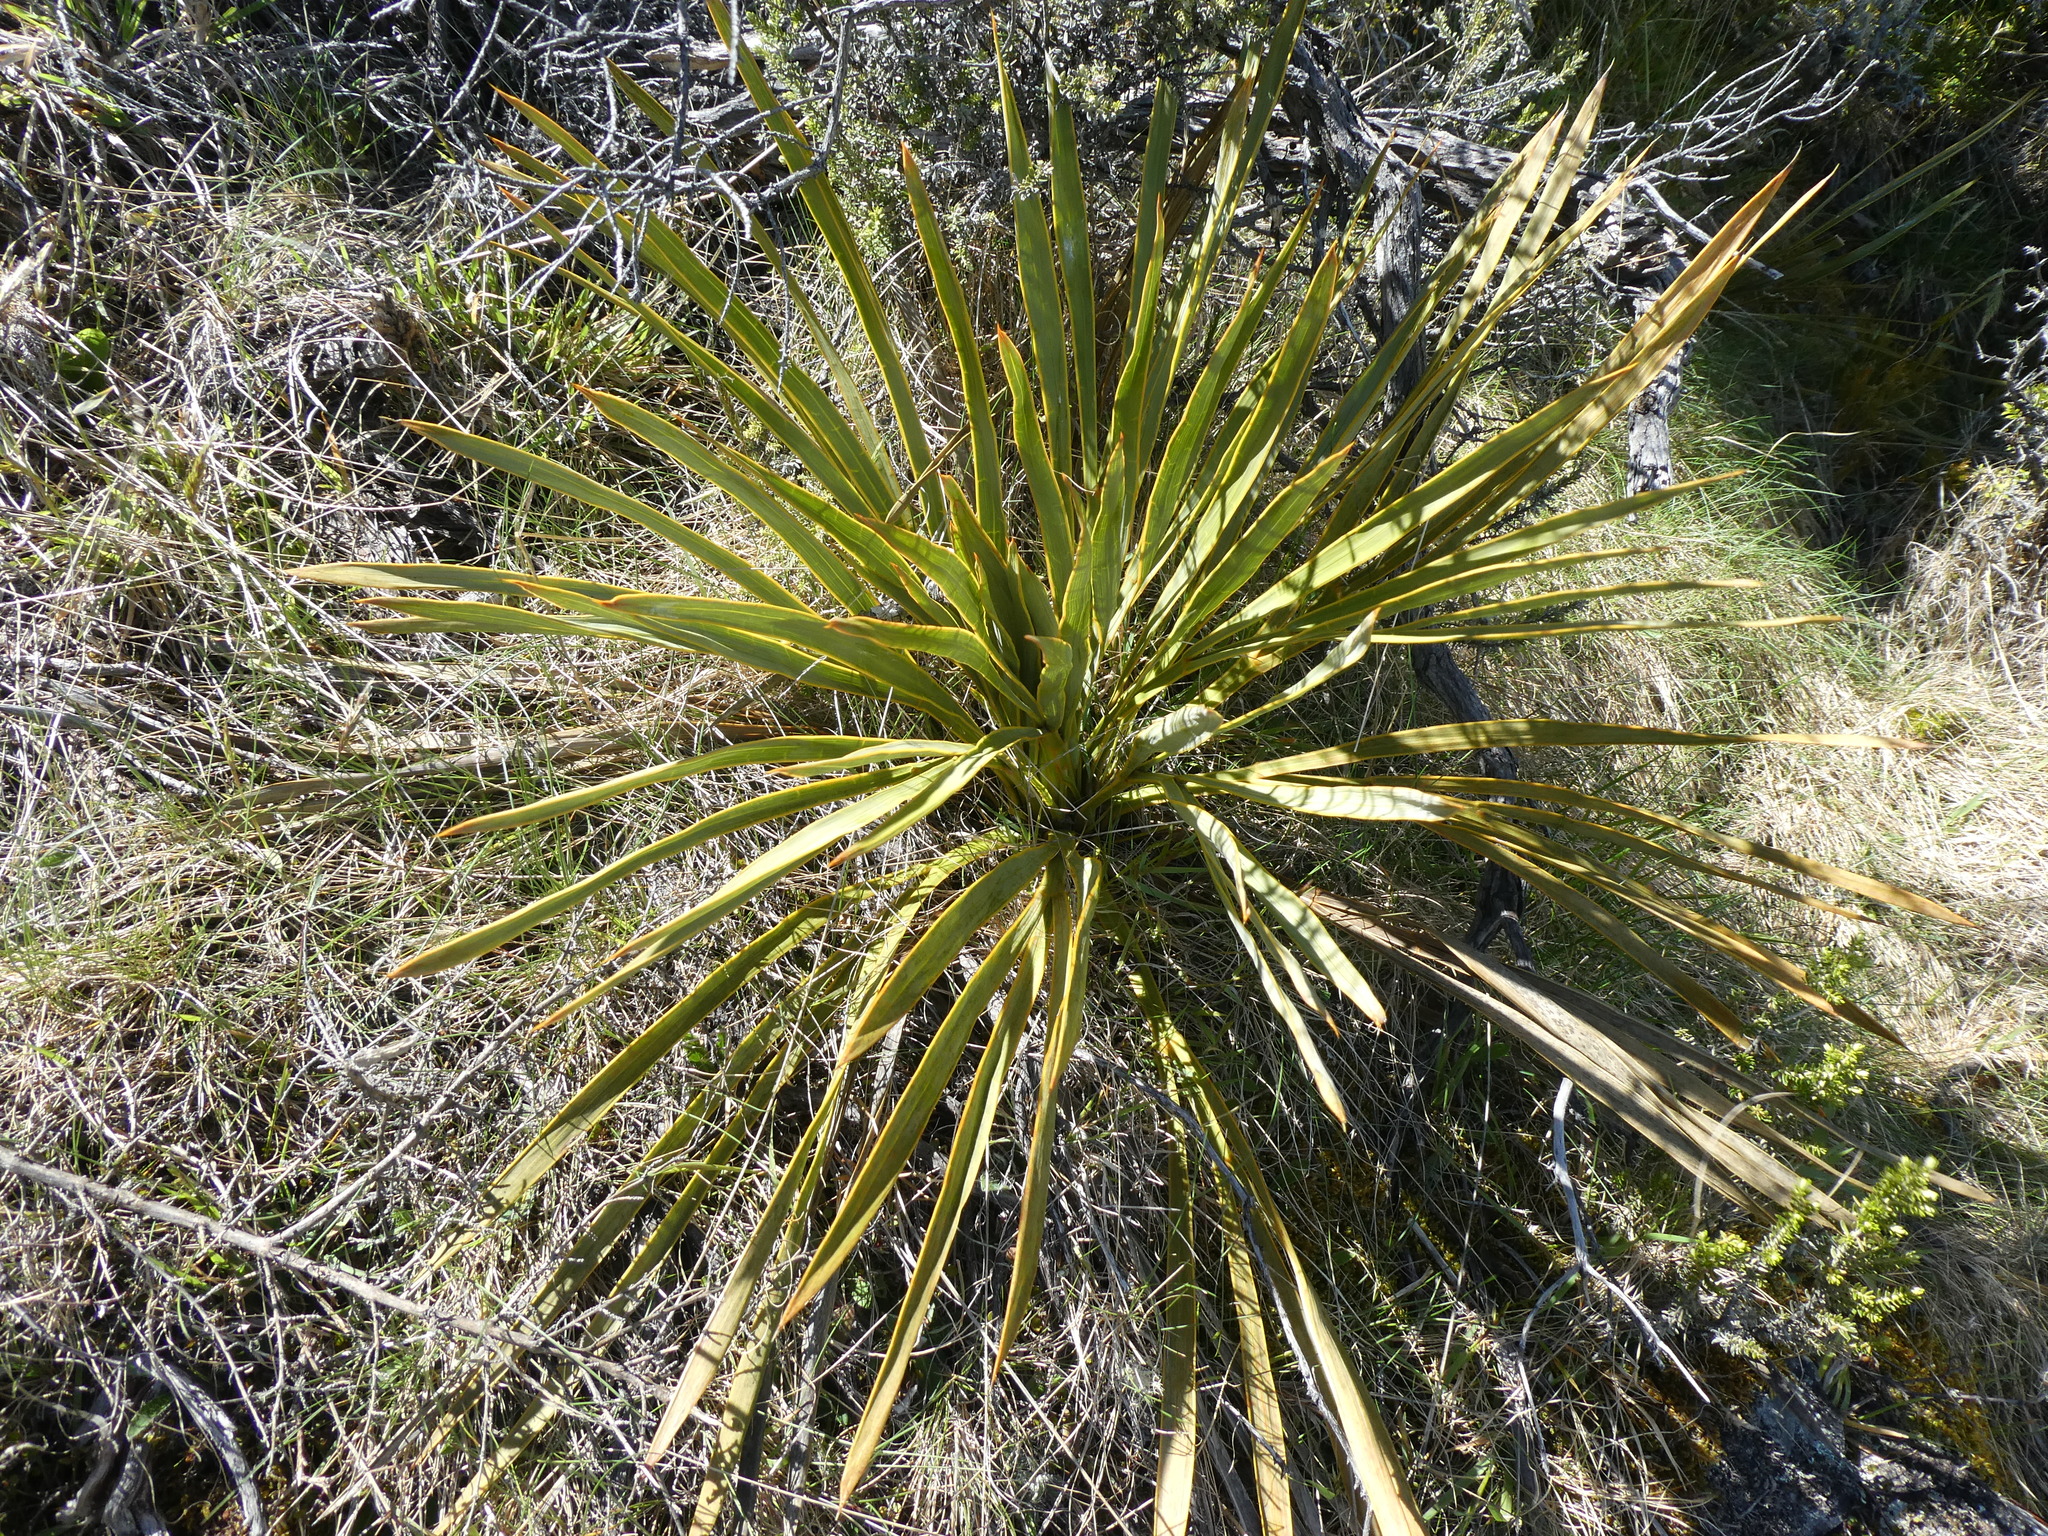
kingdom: Plantae
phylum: Tracheophyta
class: Magnoliopsida
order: Apiales
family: Apiaceae
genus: Aciphylla
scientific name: Aciphylla aurea
